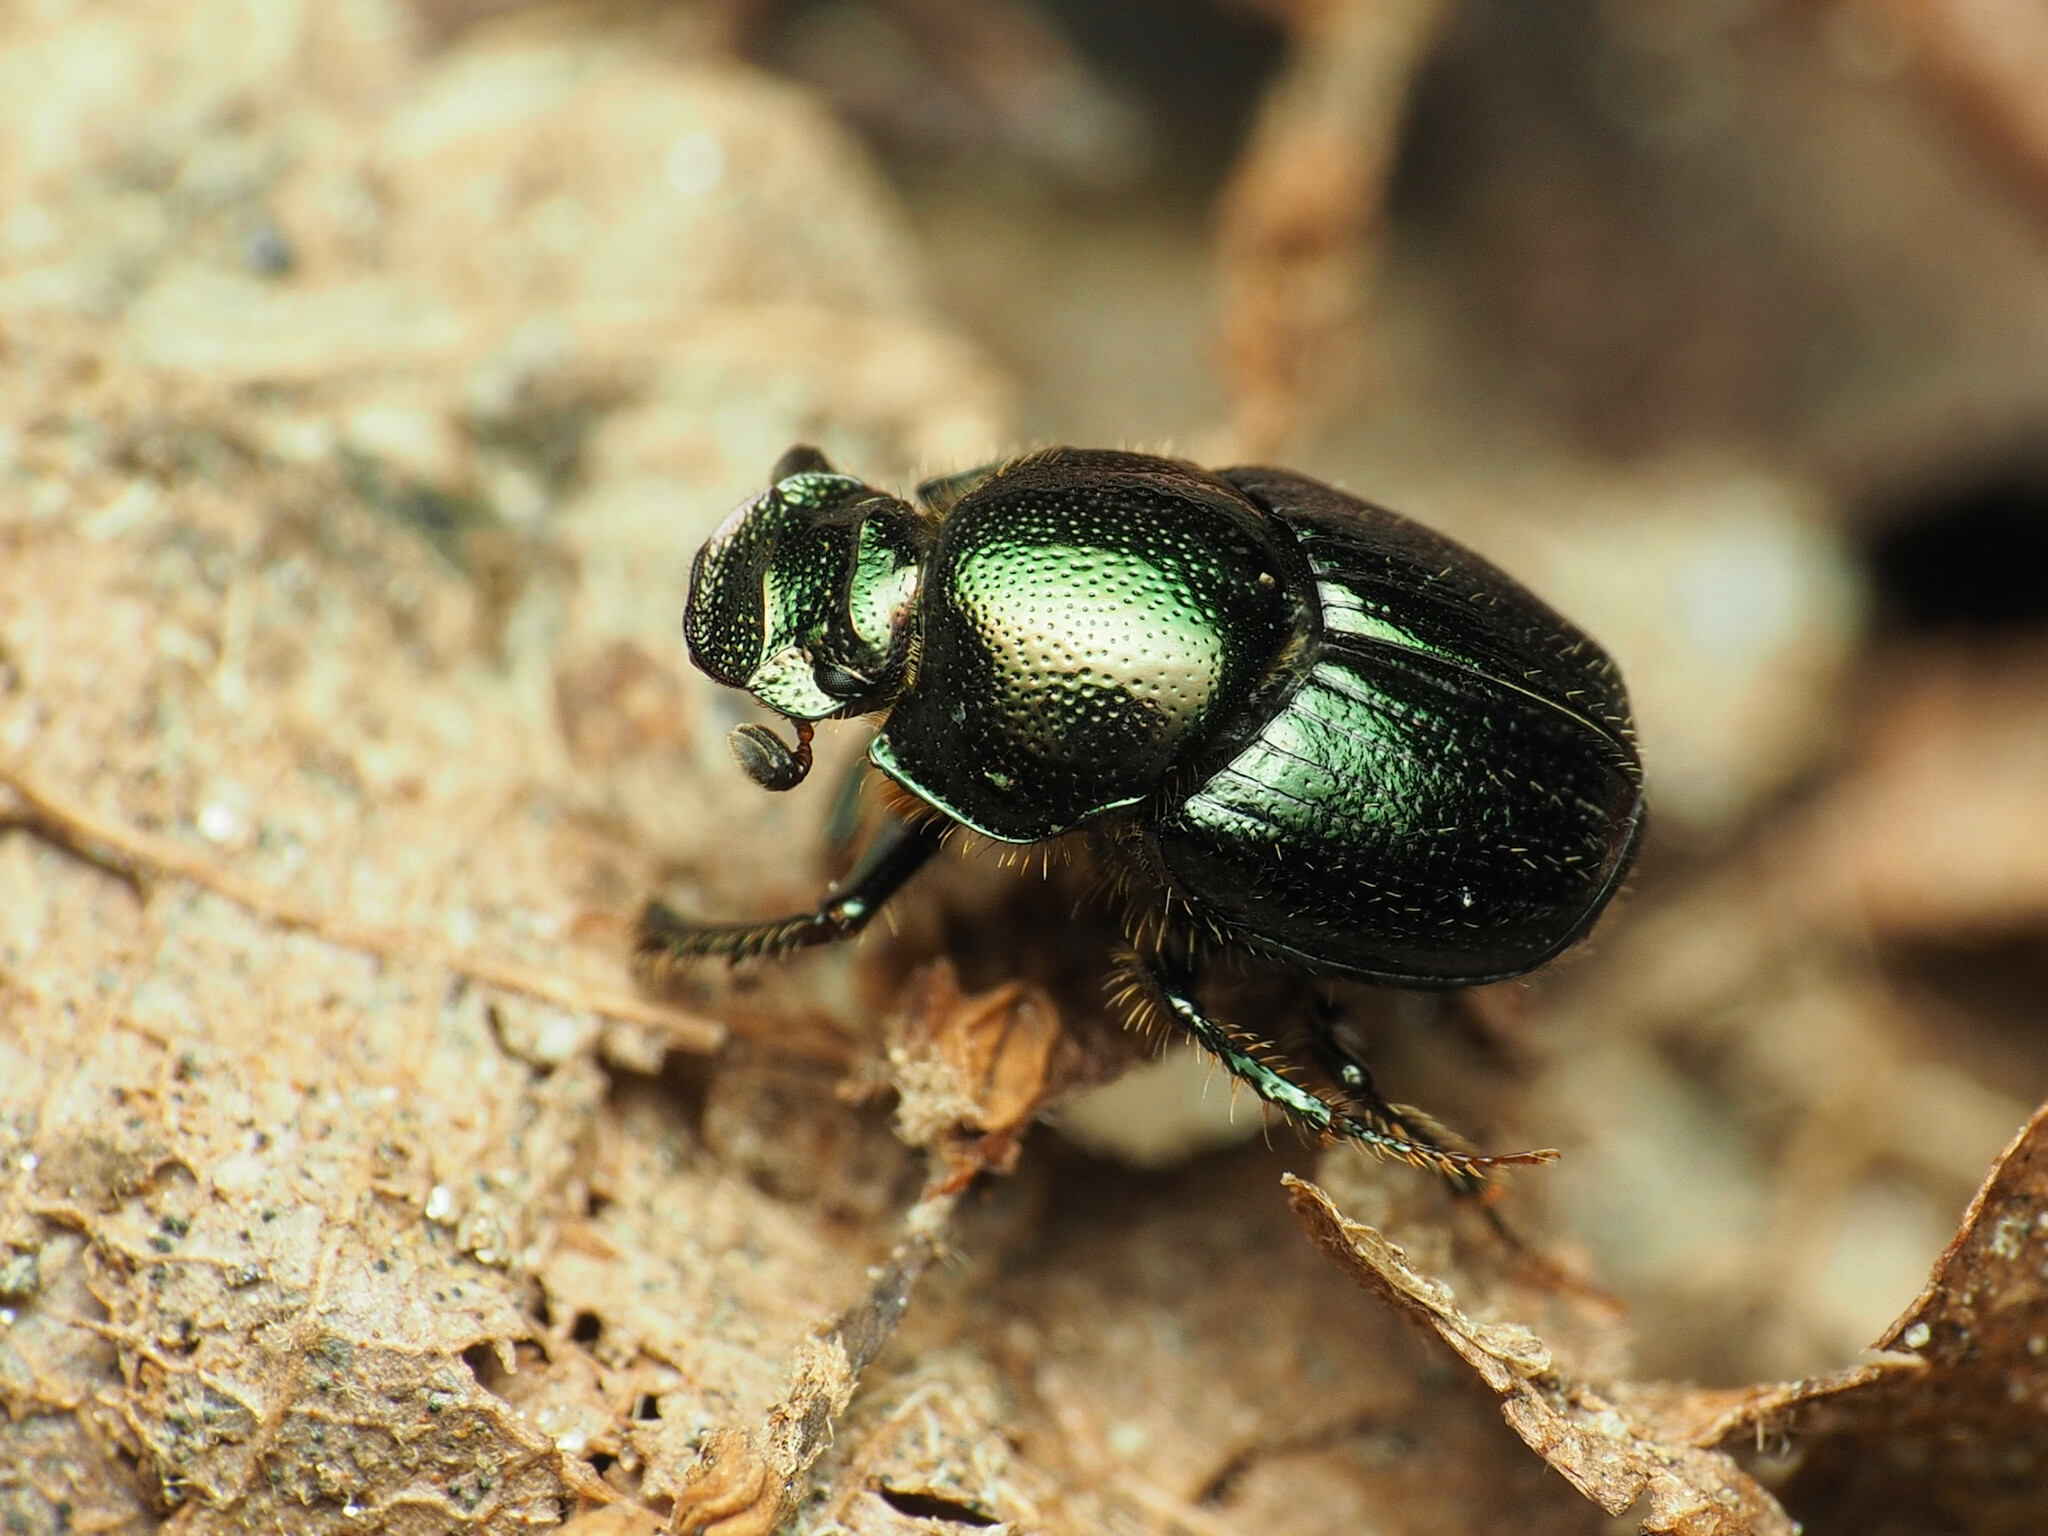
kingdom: Animalia
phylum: Arthropoda
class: Insecta
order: Coleoptera
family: Scarabaeidae
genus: Onthophagus
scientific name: Onthophagus orpheus
